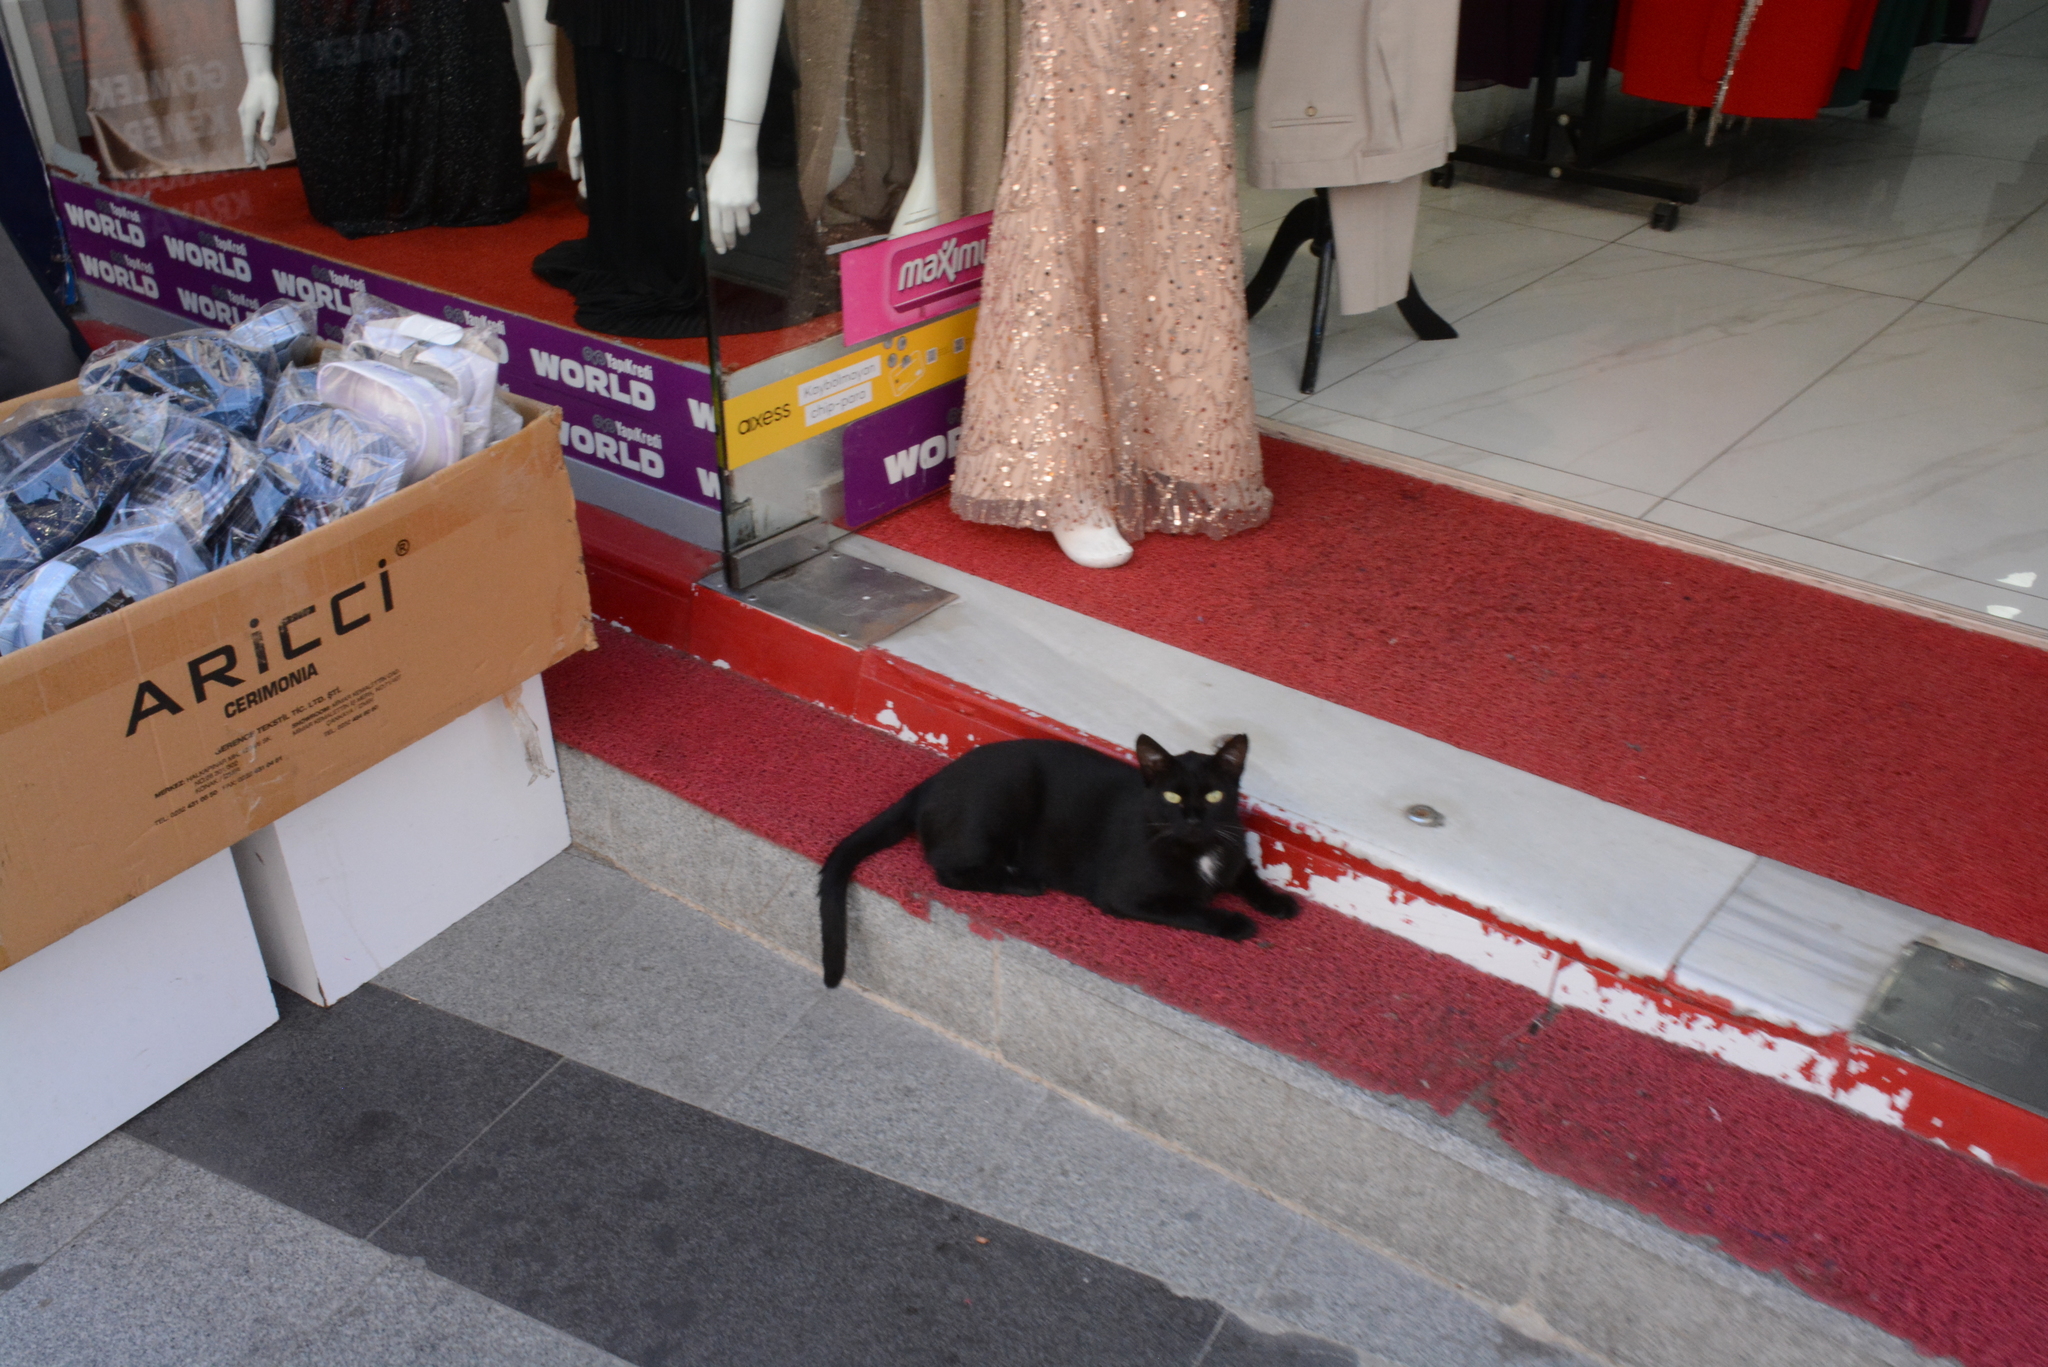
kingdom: Animalia
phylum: Chordata
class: Mammalia
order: Carnivora
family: Felidae
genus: Felis
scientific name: Felis catus
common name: Domestic cat
